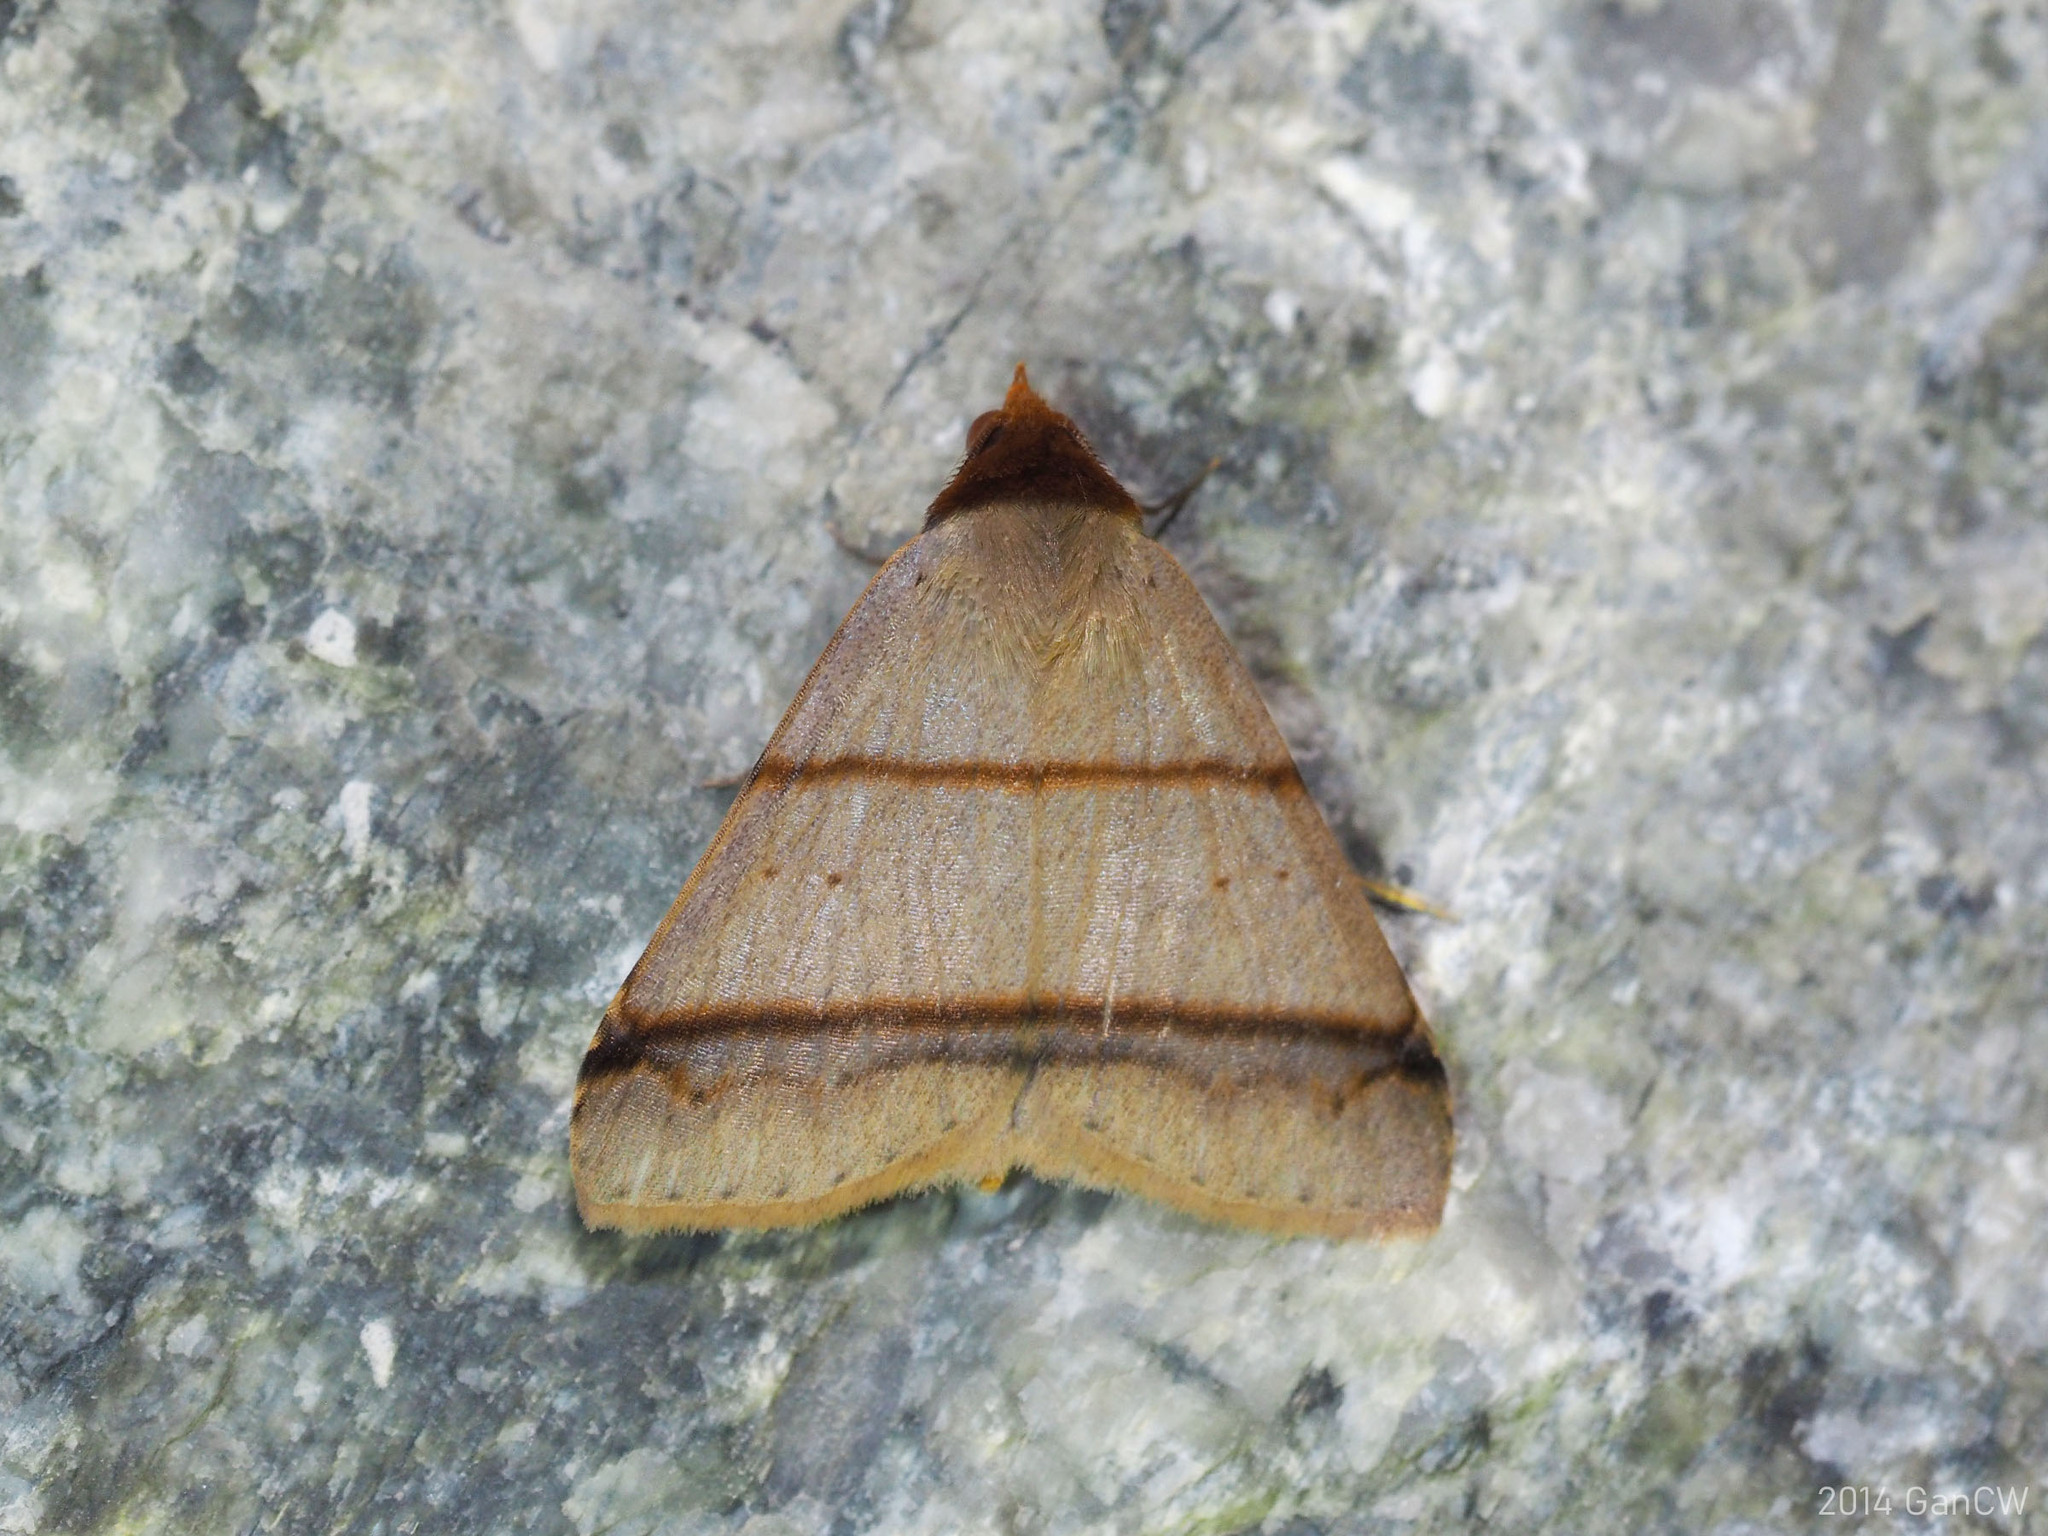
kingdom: Animalia
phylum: Arthropoda
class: Insecta
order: Lepidoptera
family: Erebidae
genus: Plecoptera
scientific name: Plecoptera recta
